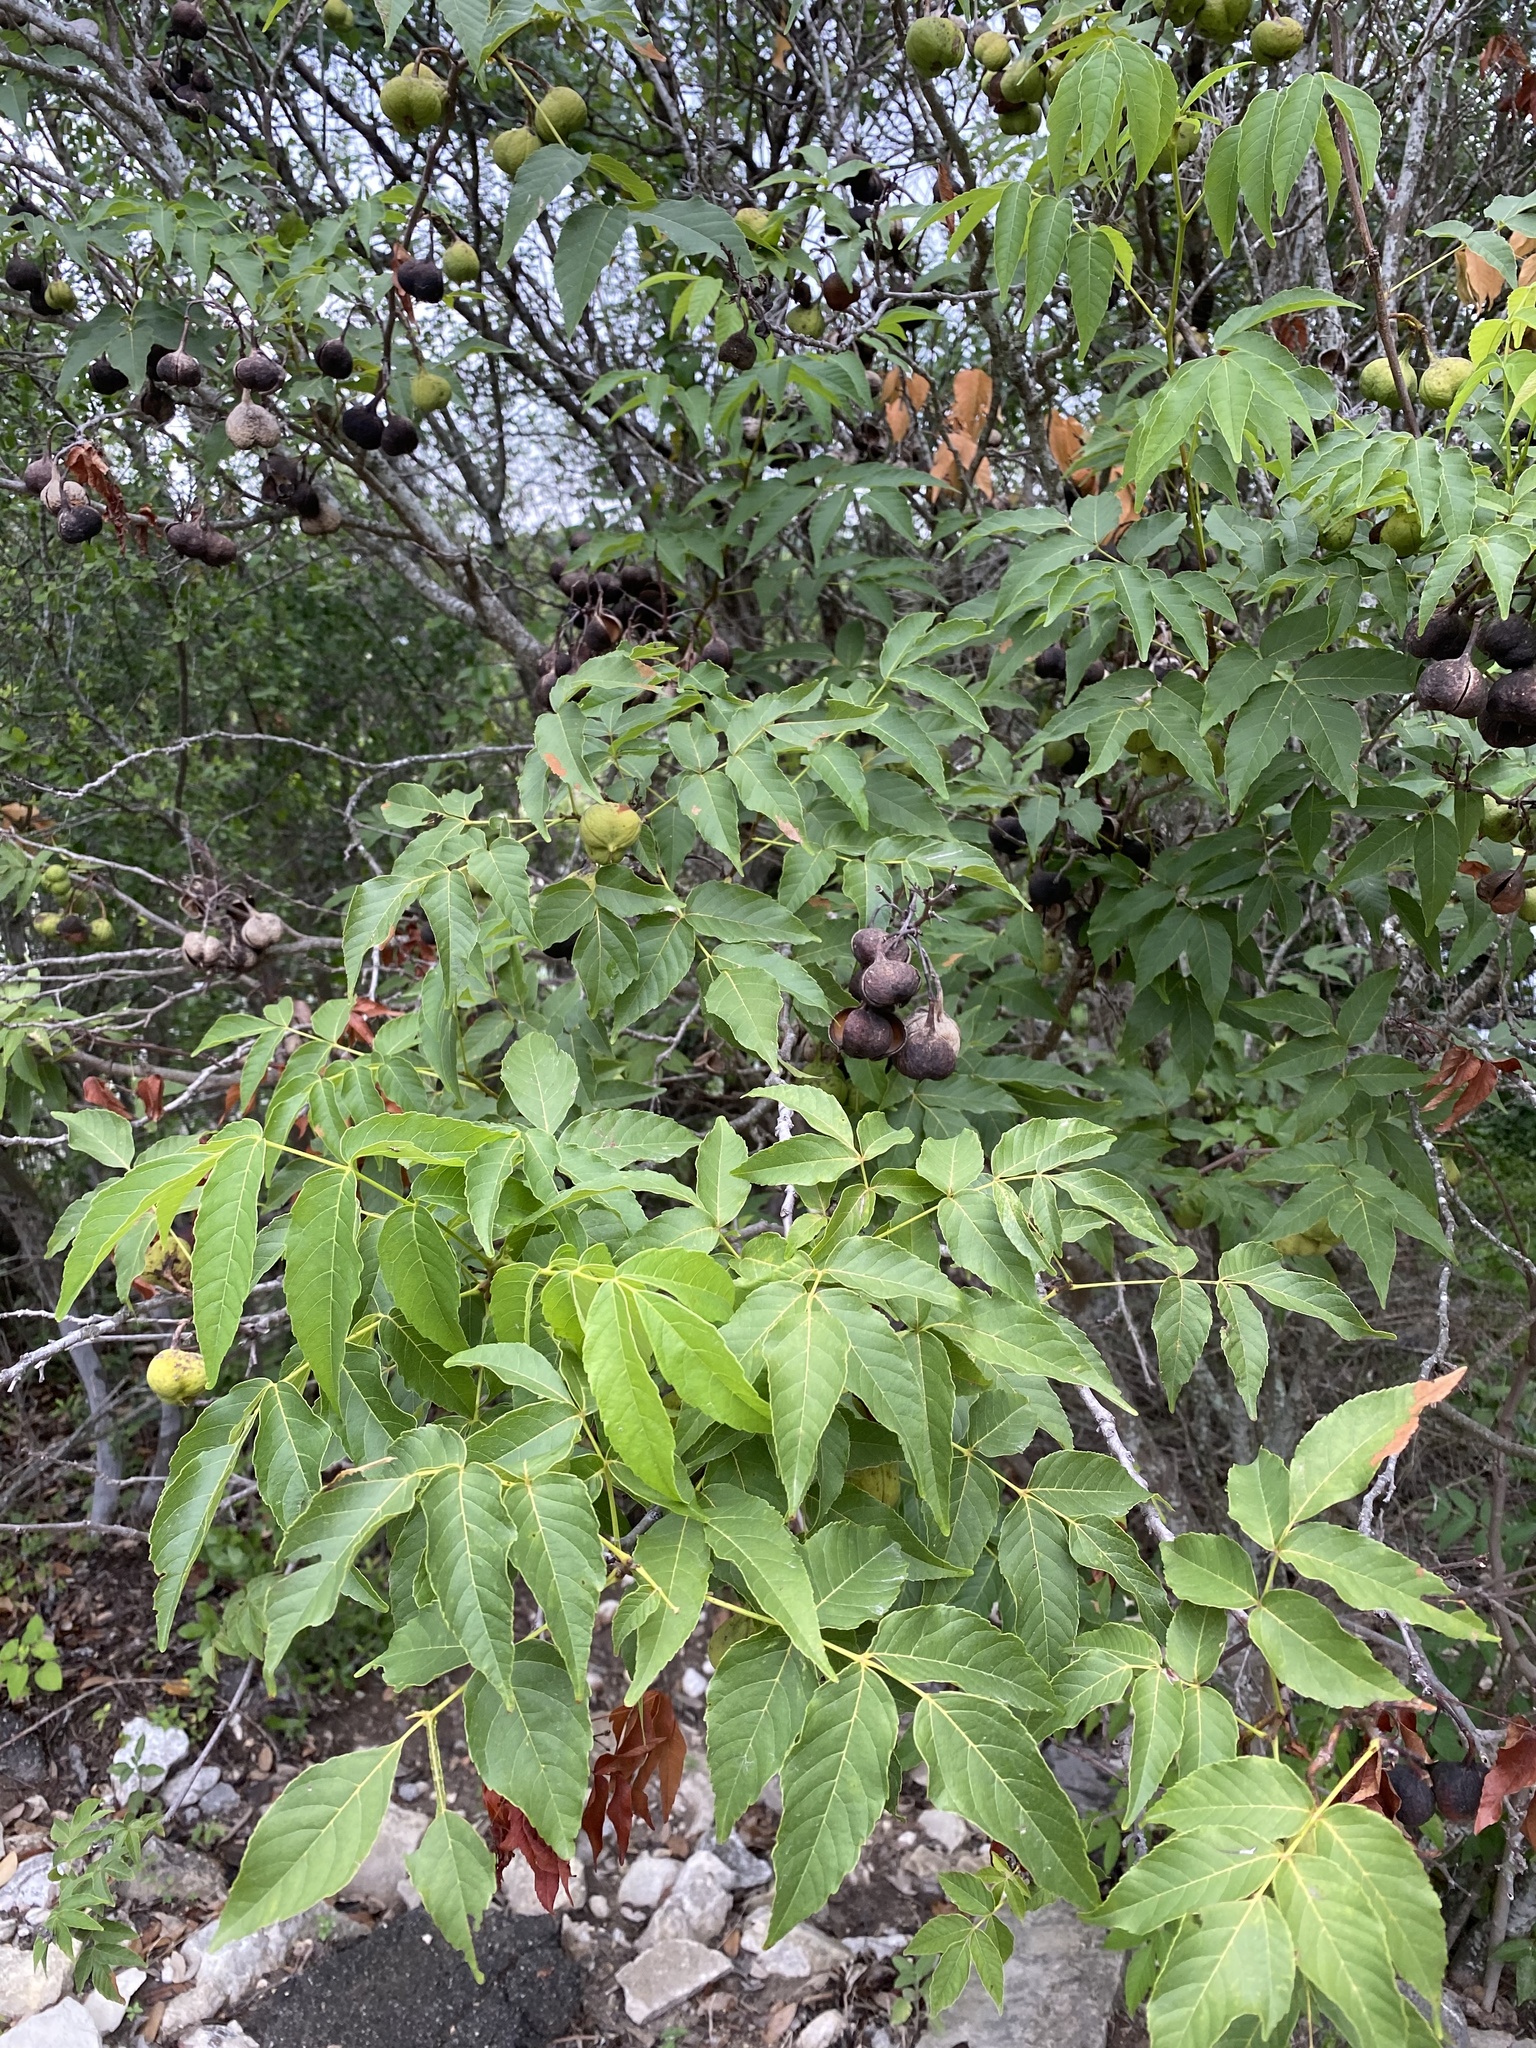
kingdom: Plantae
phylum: Tracheophyta
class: Magnoliopsida
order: Sapindales
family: Sapindaceae
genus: Ungnadia
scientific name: Ungnadia speciosa
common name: Texas-buckeye
